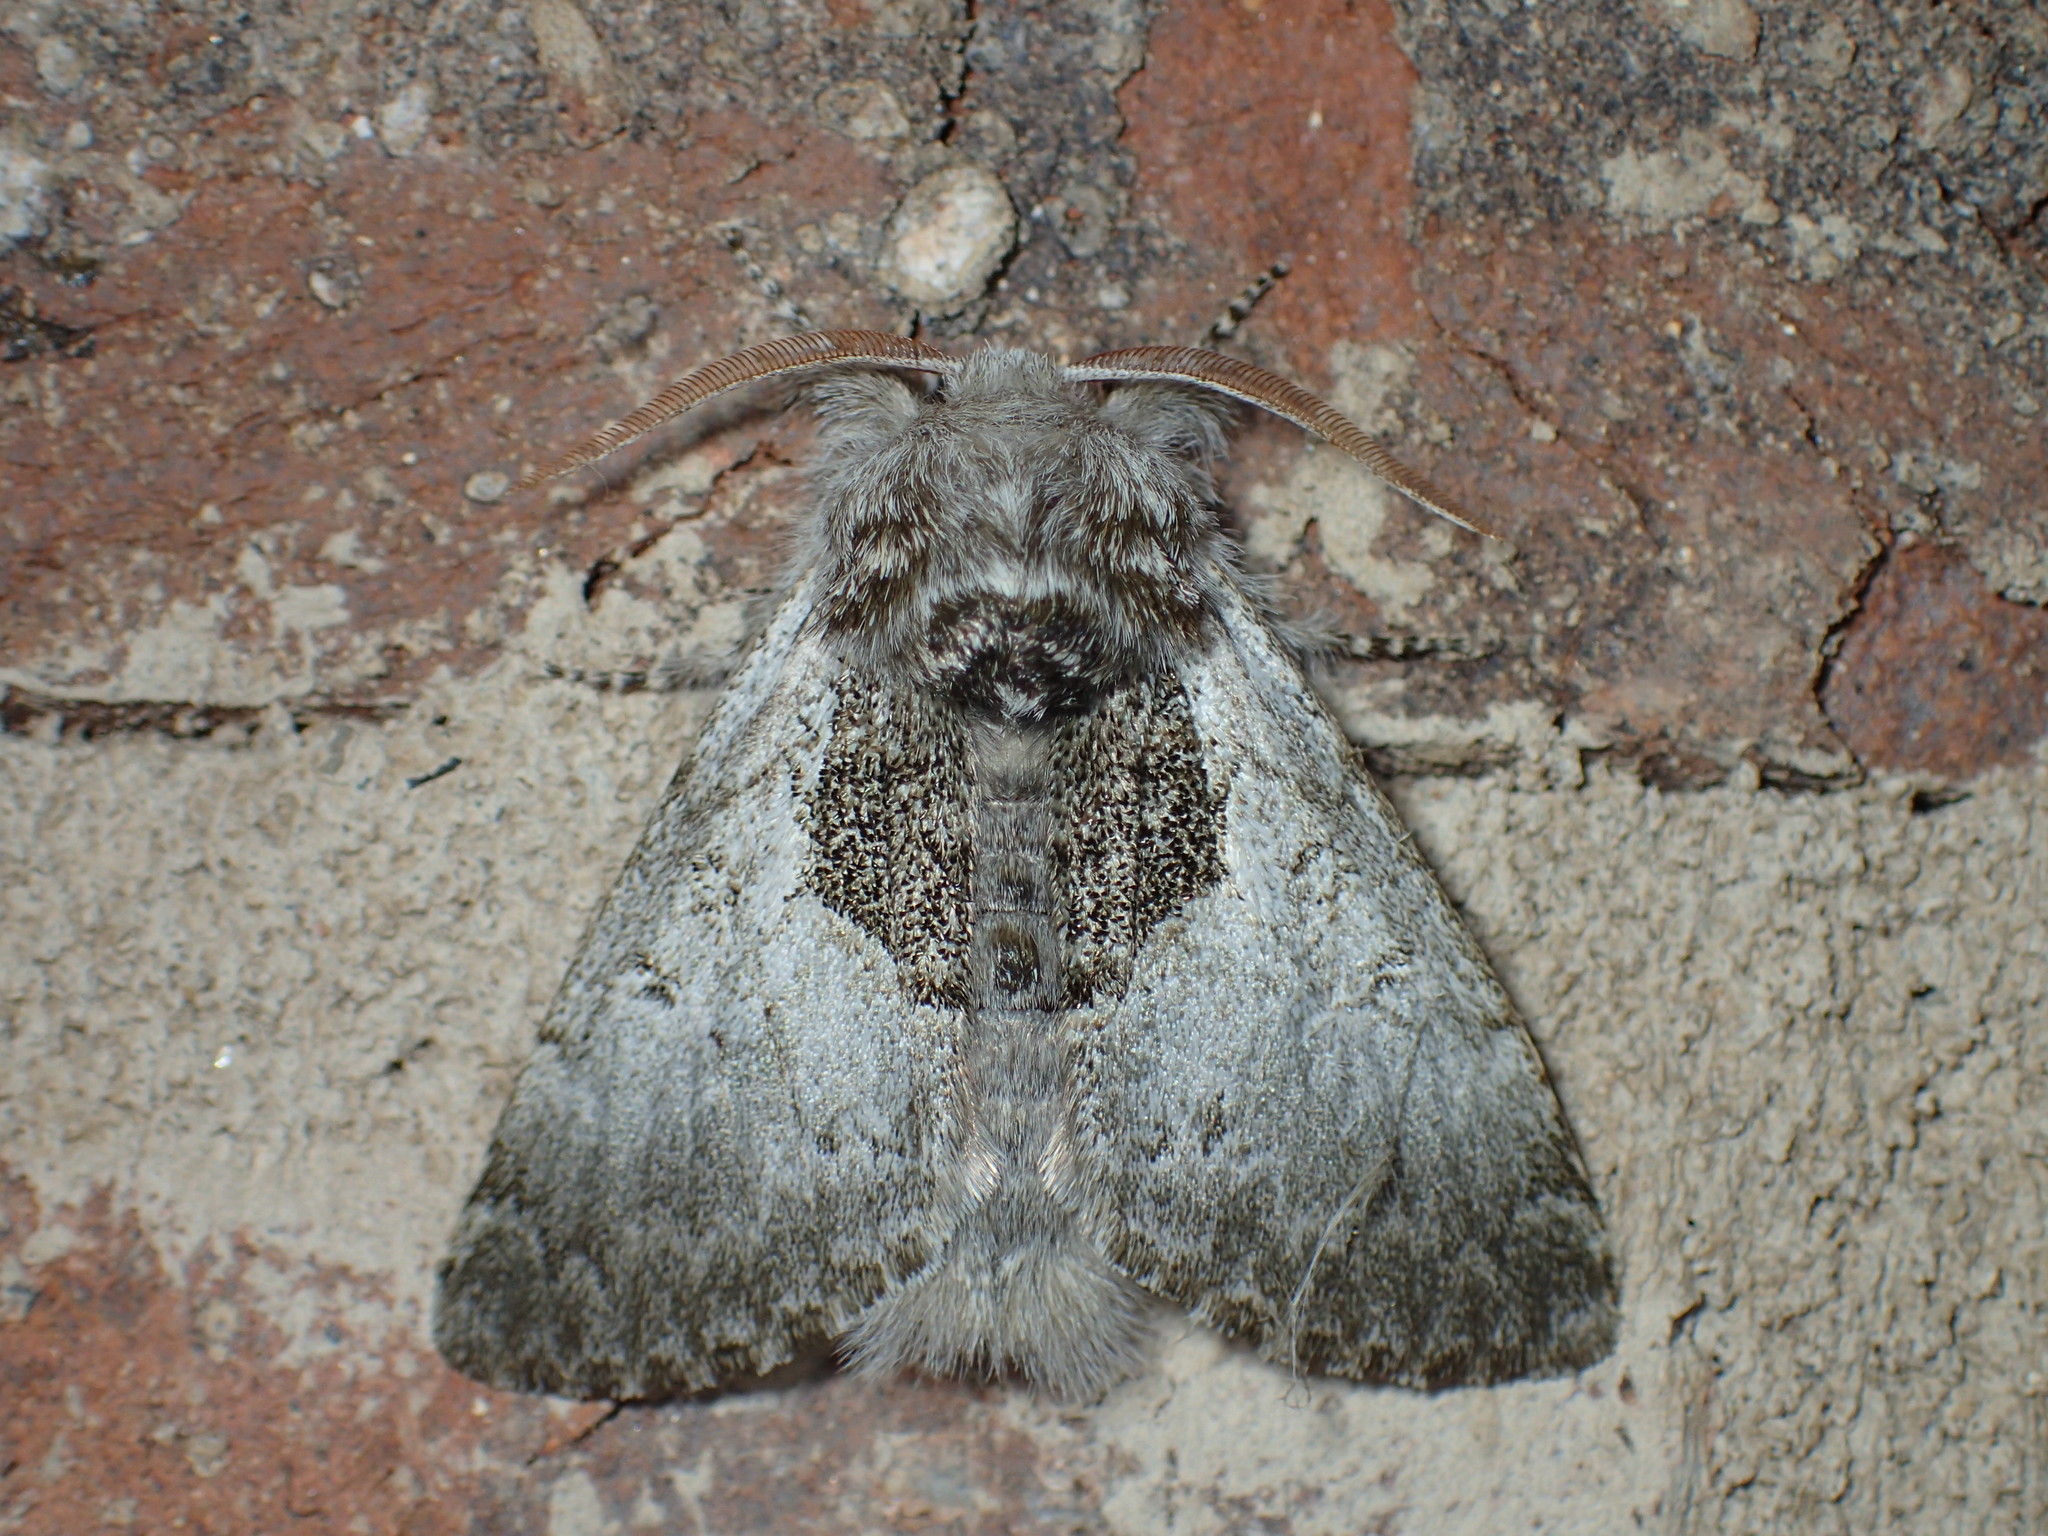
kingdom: Animalia
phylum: Arthropoda
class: Insecta
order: Lepidoptera
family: Noctuidae
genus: Colocasia
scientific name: Colocasia flavicornis
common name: Saddled yellowhorn
